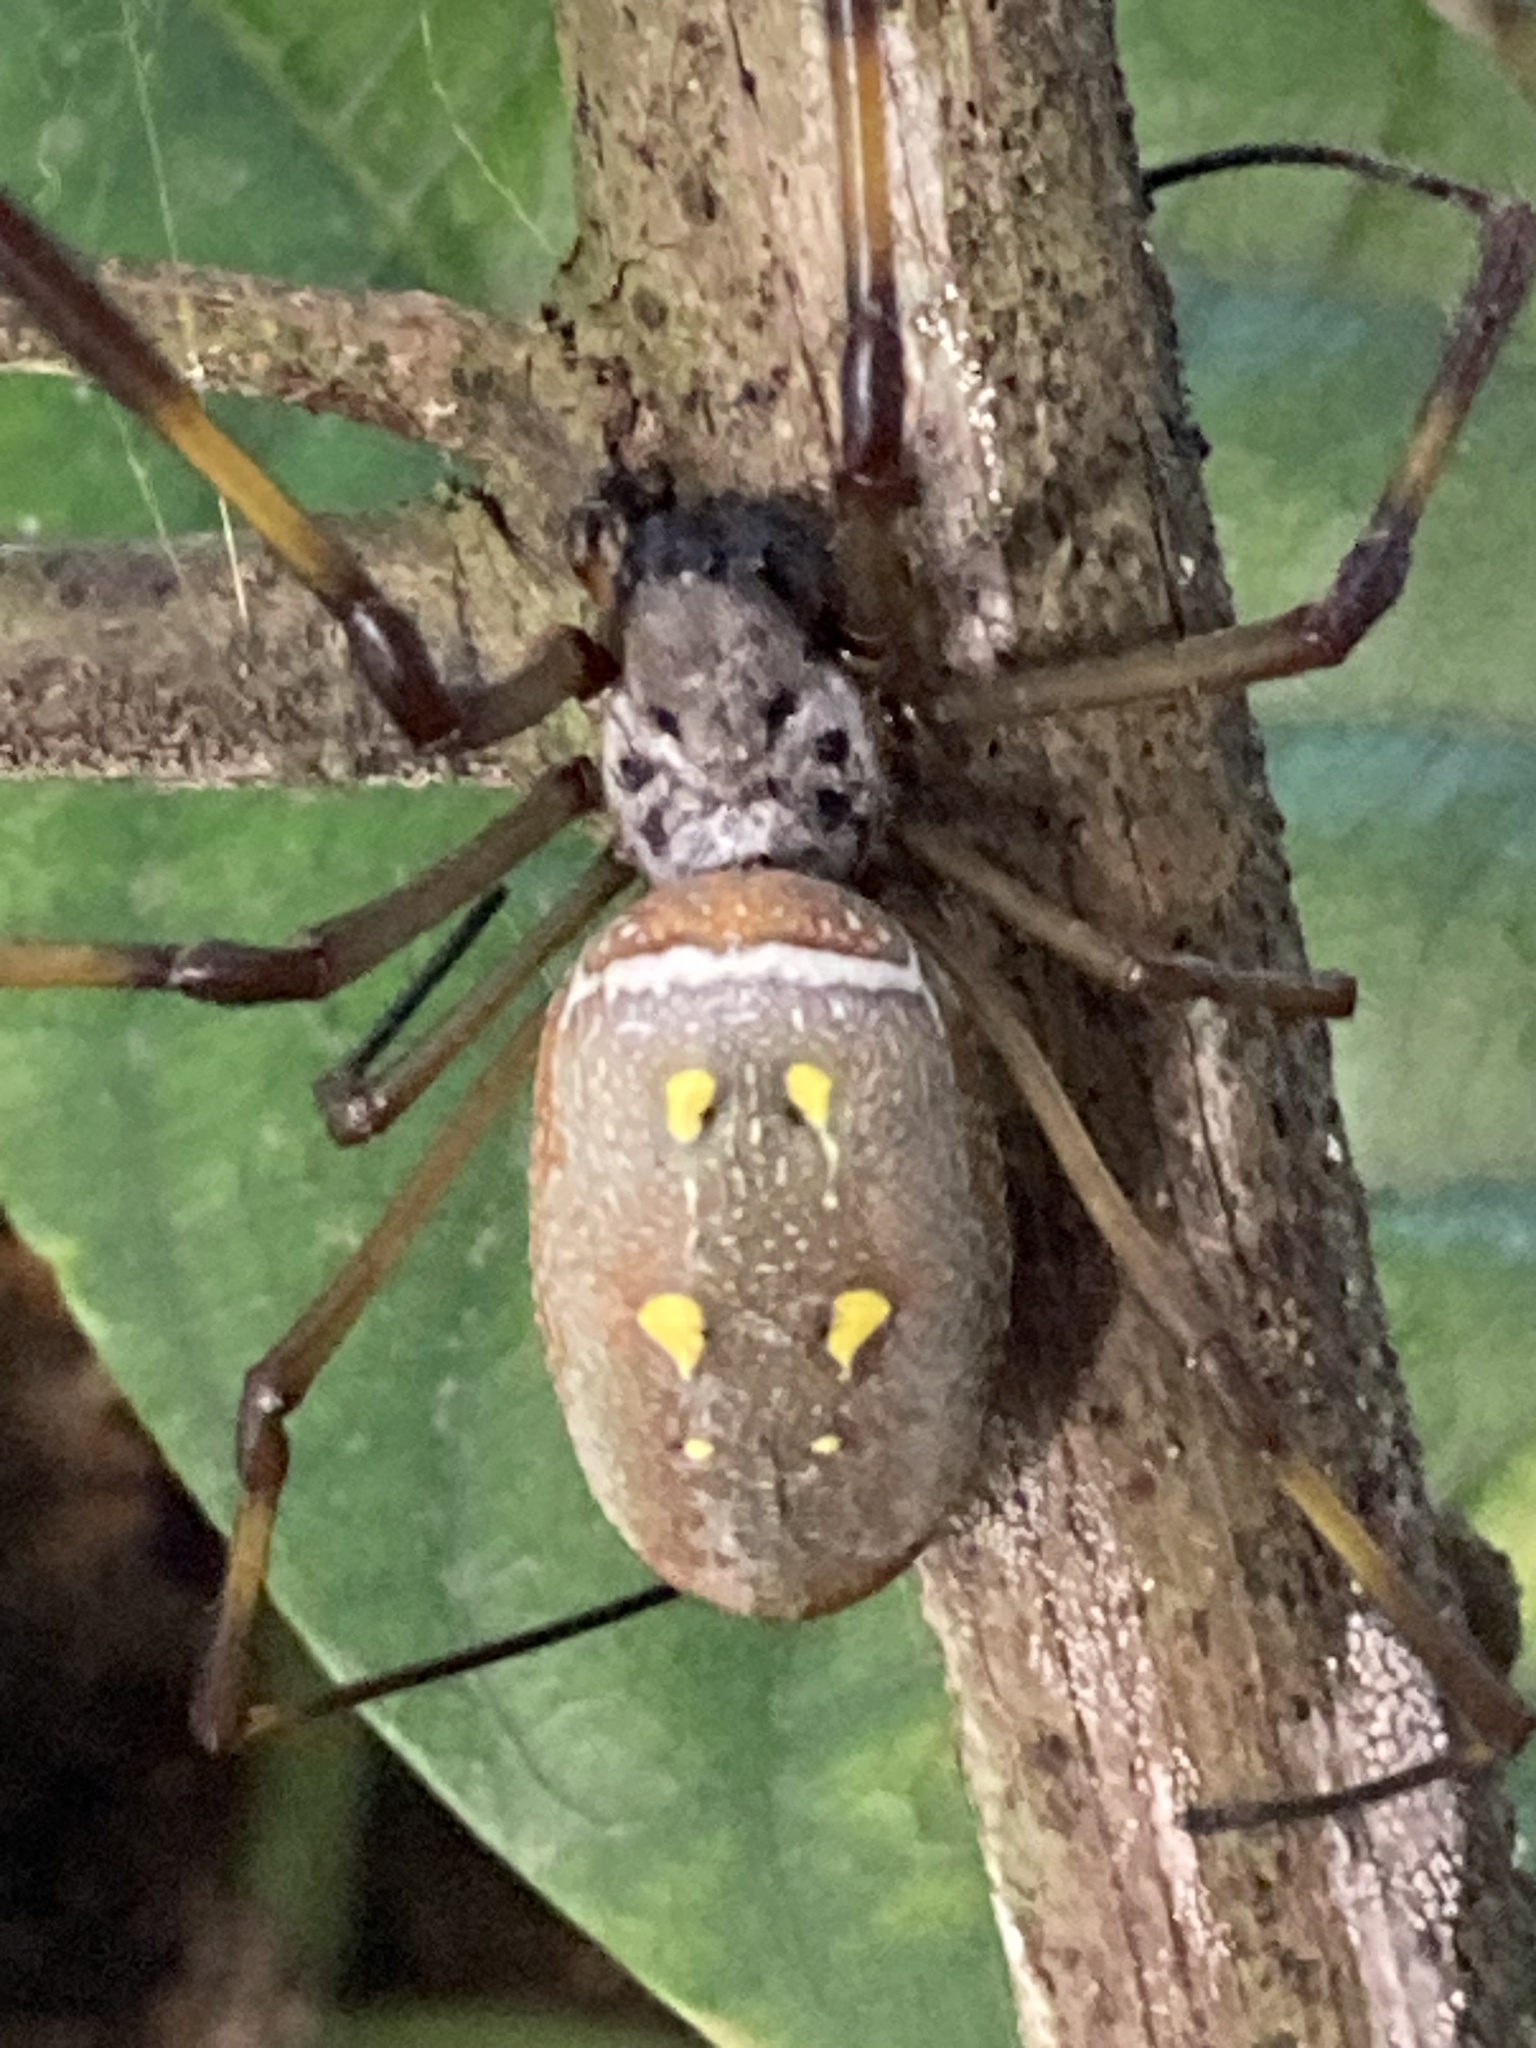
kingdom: Animalia
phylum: Arthropoda
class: Arachnida
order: Araneae
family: Araneidae
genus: Trichonephila
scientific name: Trichonephila clavipes
